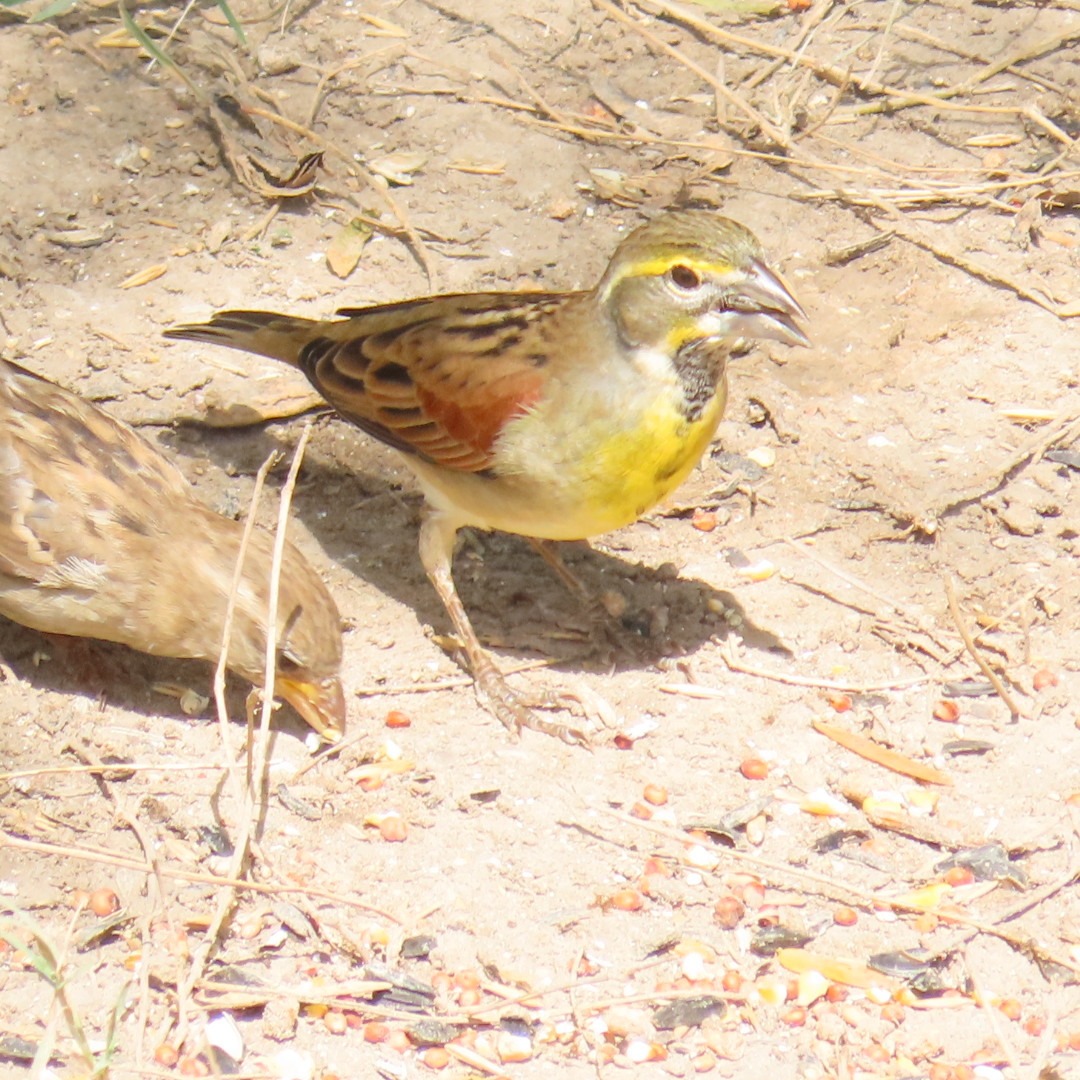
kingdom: Animalia
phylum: Chordata
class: Aves
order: Passeriformes
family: Cardinalidae
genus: Spiza
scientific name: Spiza americana
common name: Dickcissel
